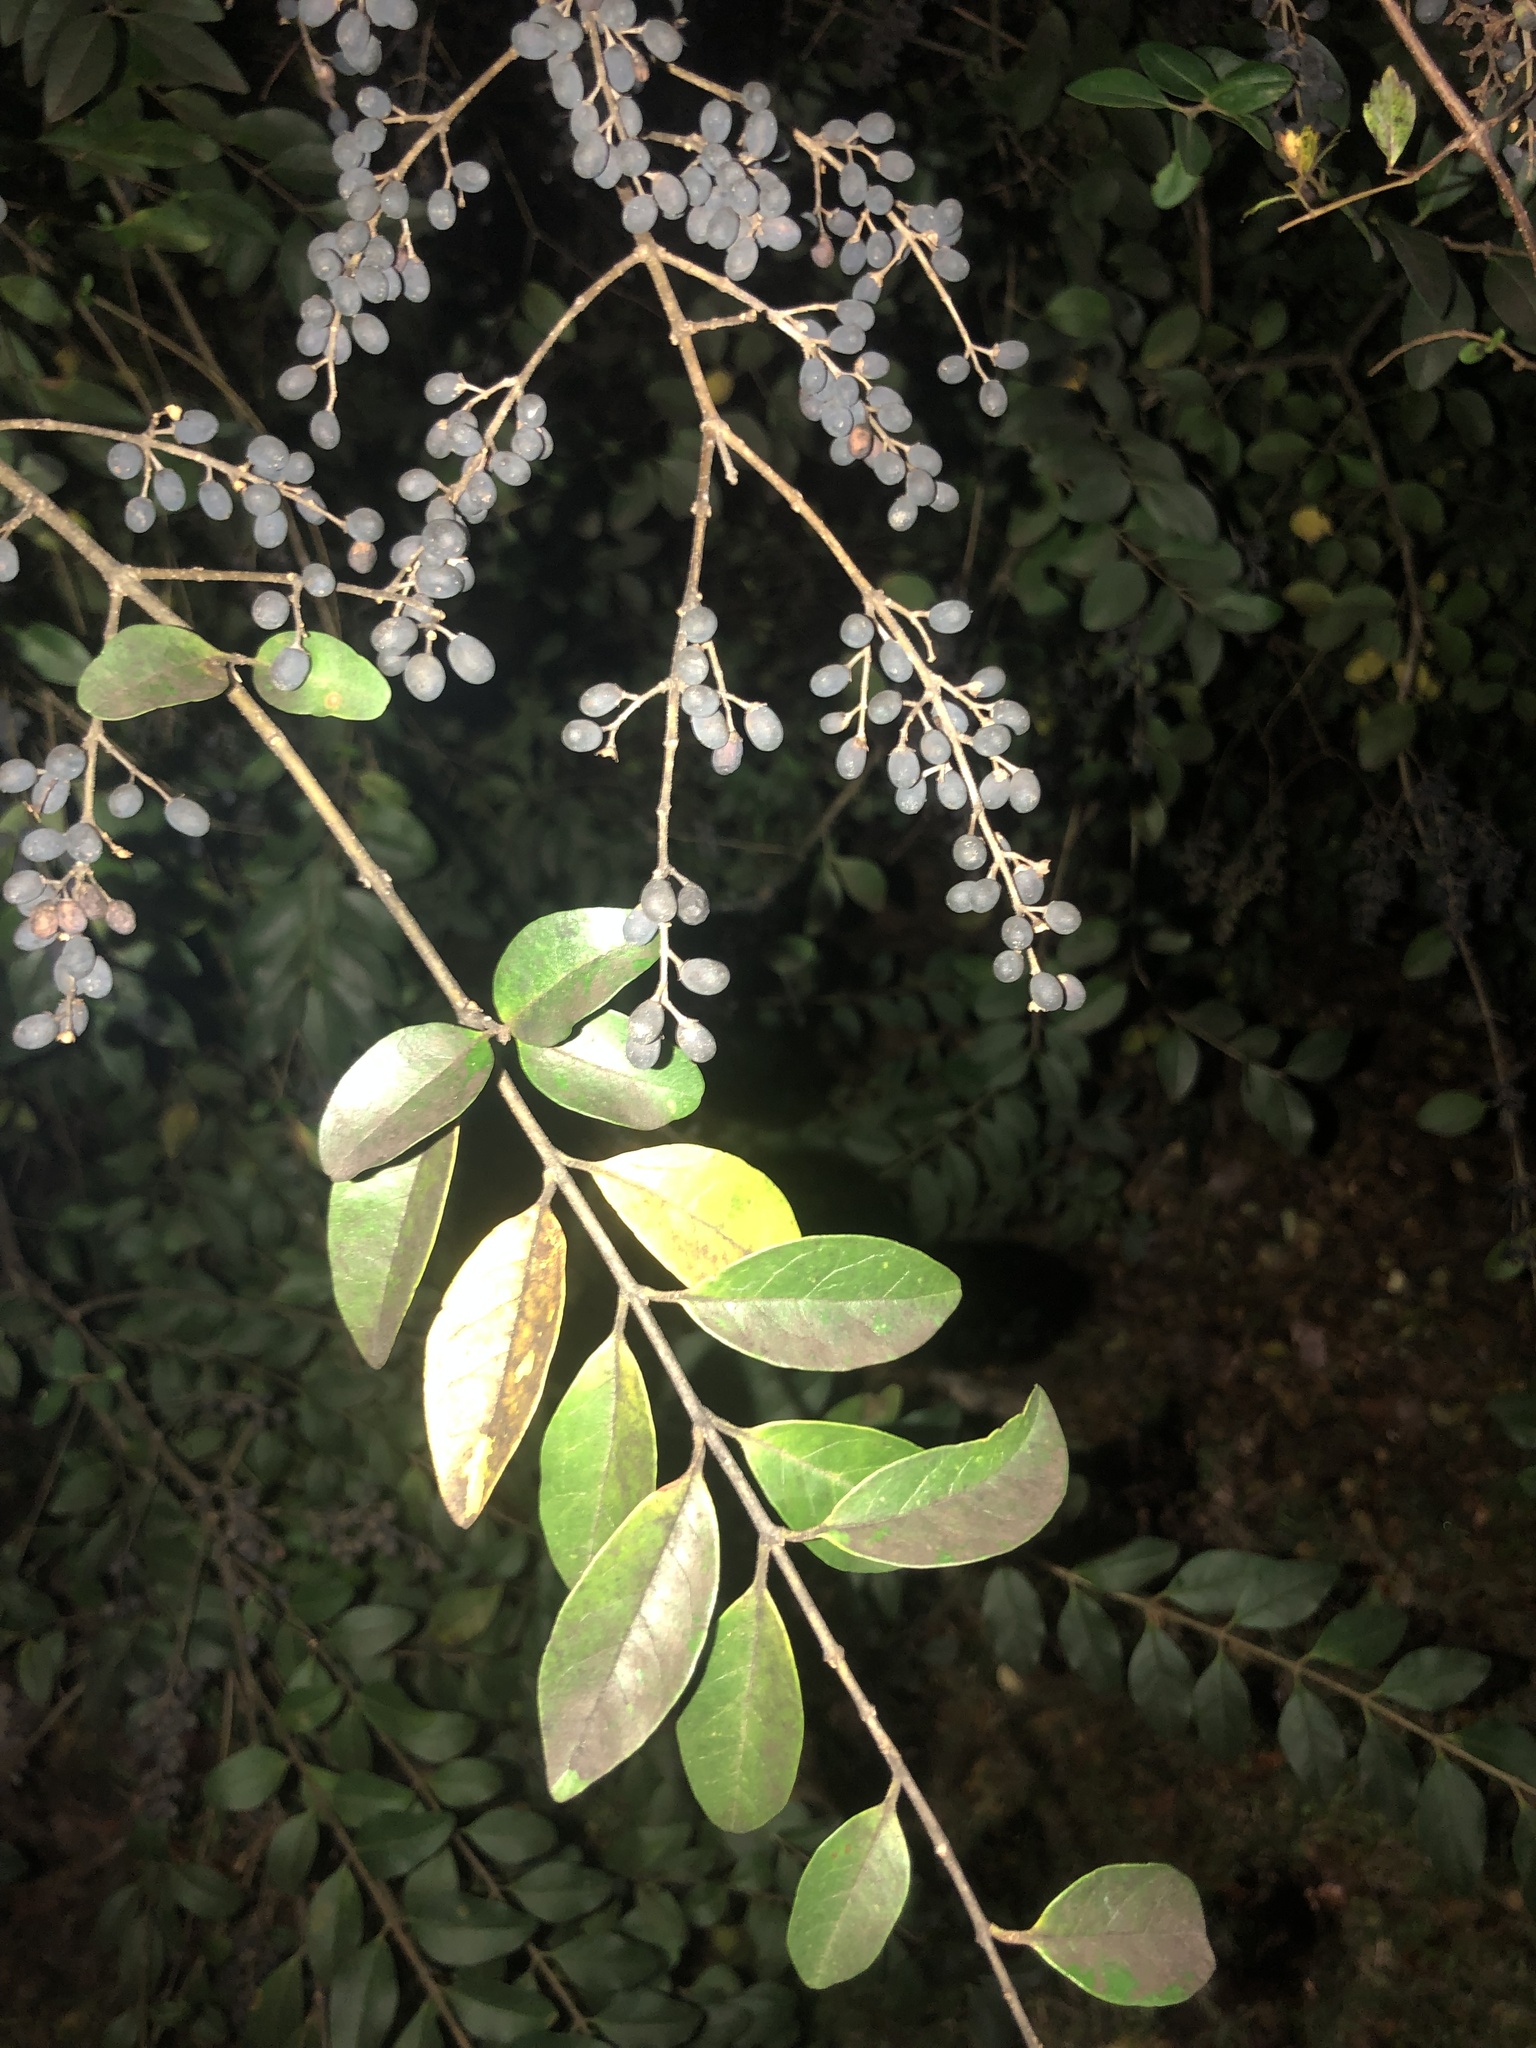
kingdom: Plantae
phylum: Tracheophyta
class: Magnoliopsida
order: Lamiales
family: Oleaceae
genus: Ligustrum
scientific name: Ligustrum sinense
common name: Chinese privet
